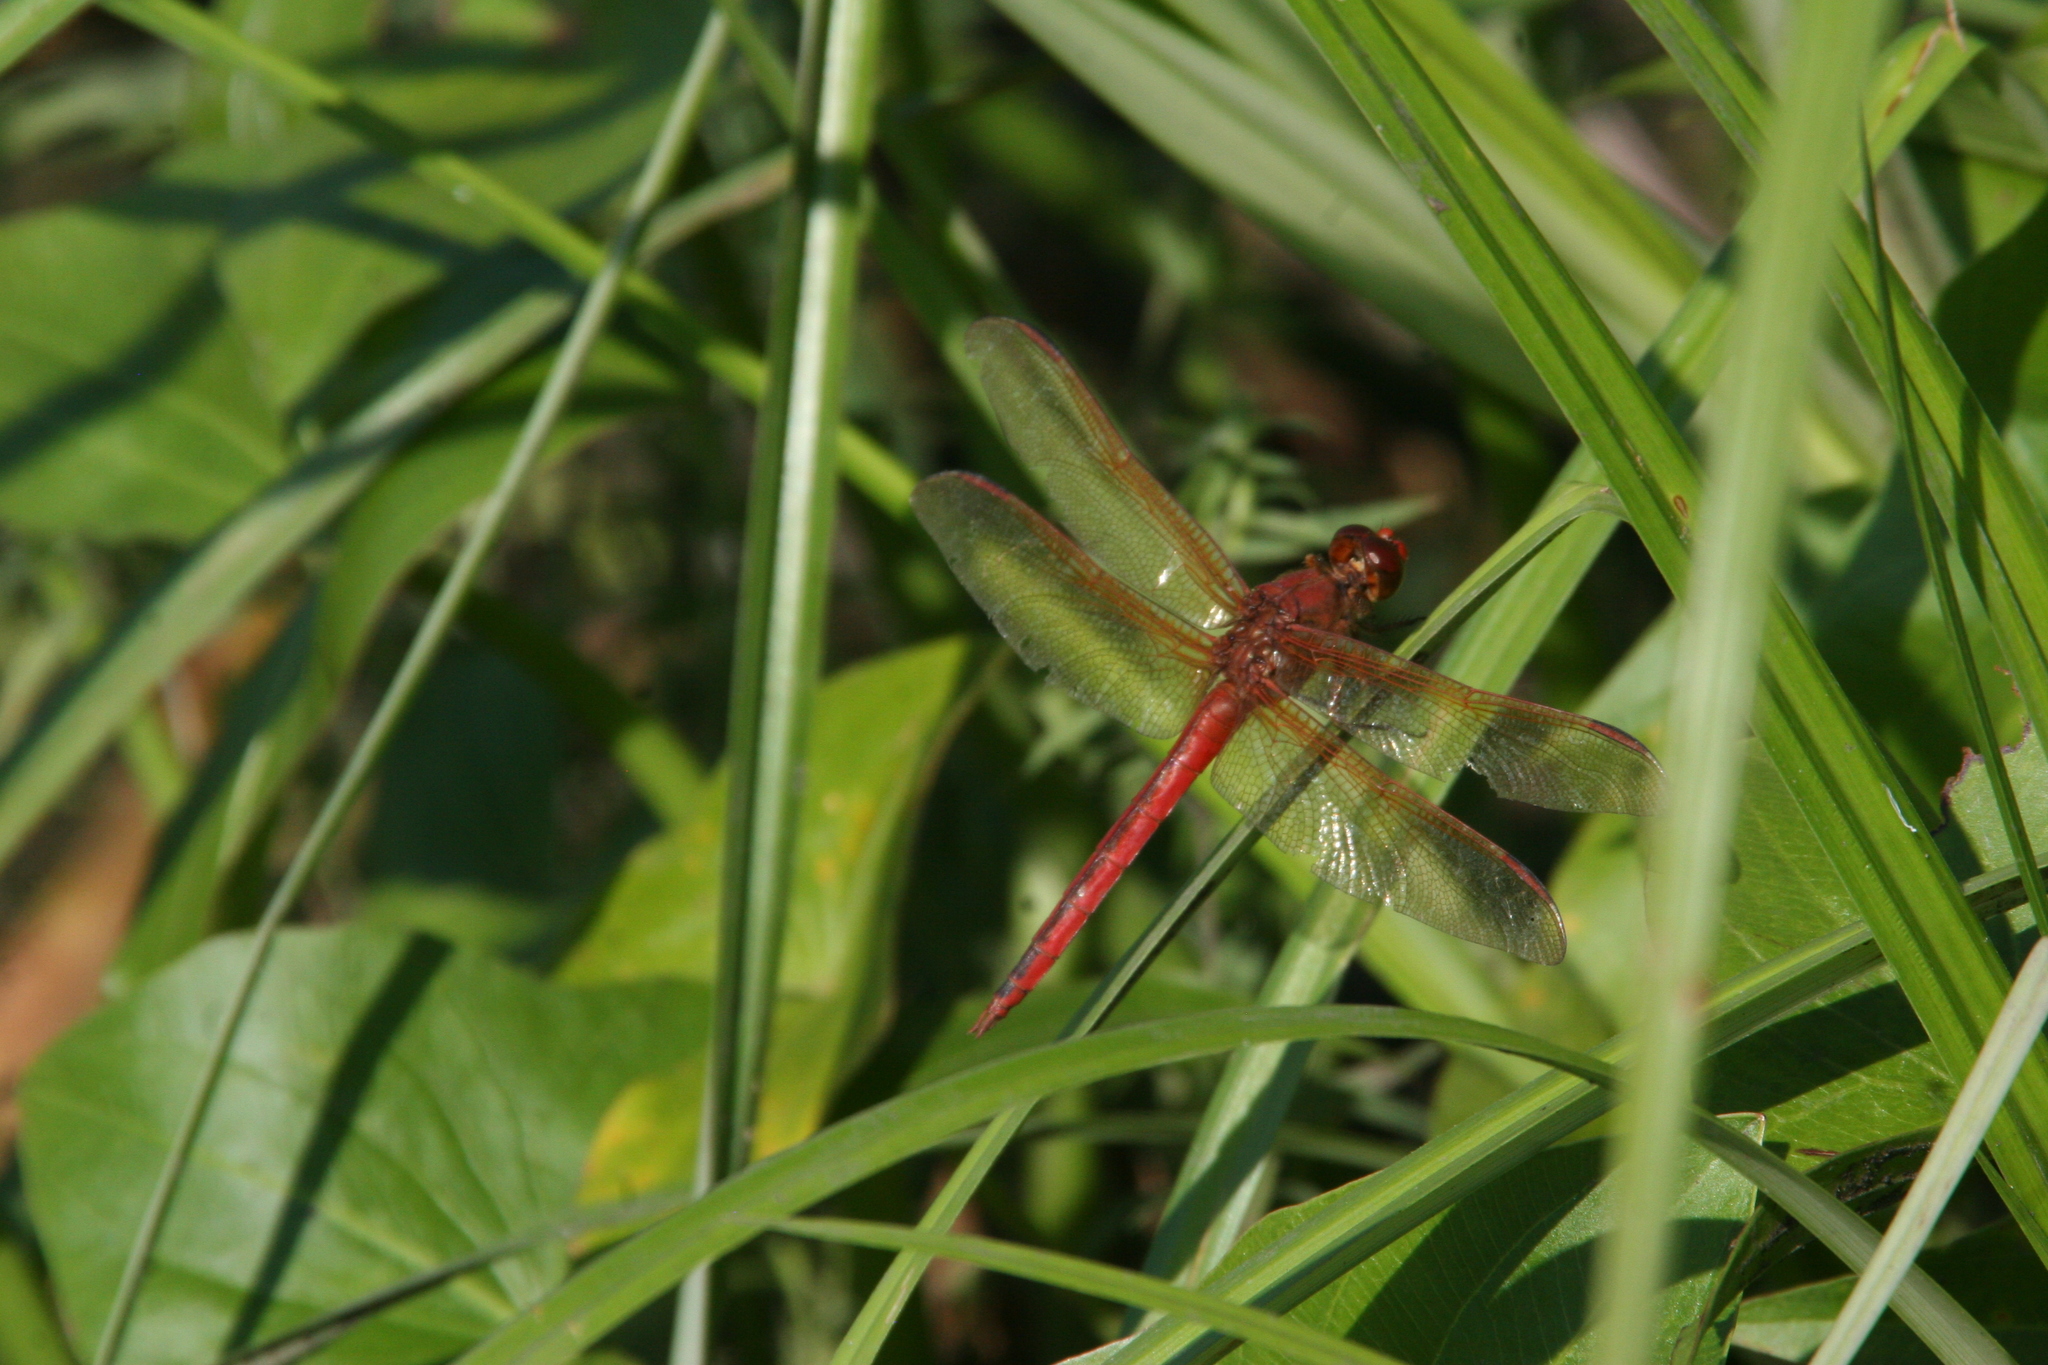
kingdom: Animalia
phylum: Arthropoda
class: Insecta
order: Odonata
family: Libellulidae
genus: Libellula
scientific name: Libellula needhami
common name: Needham's skimmer
